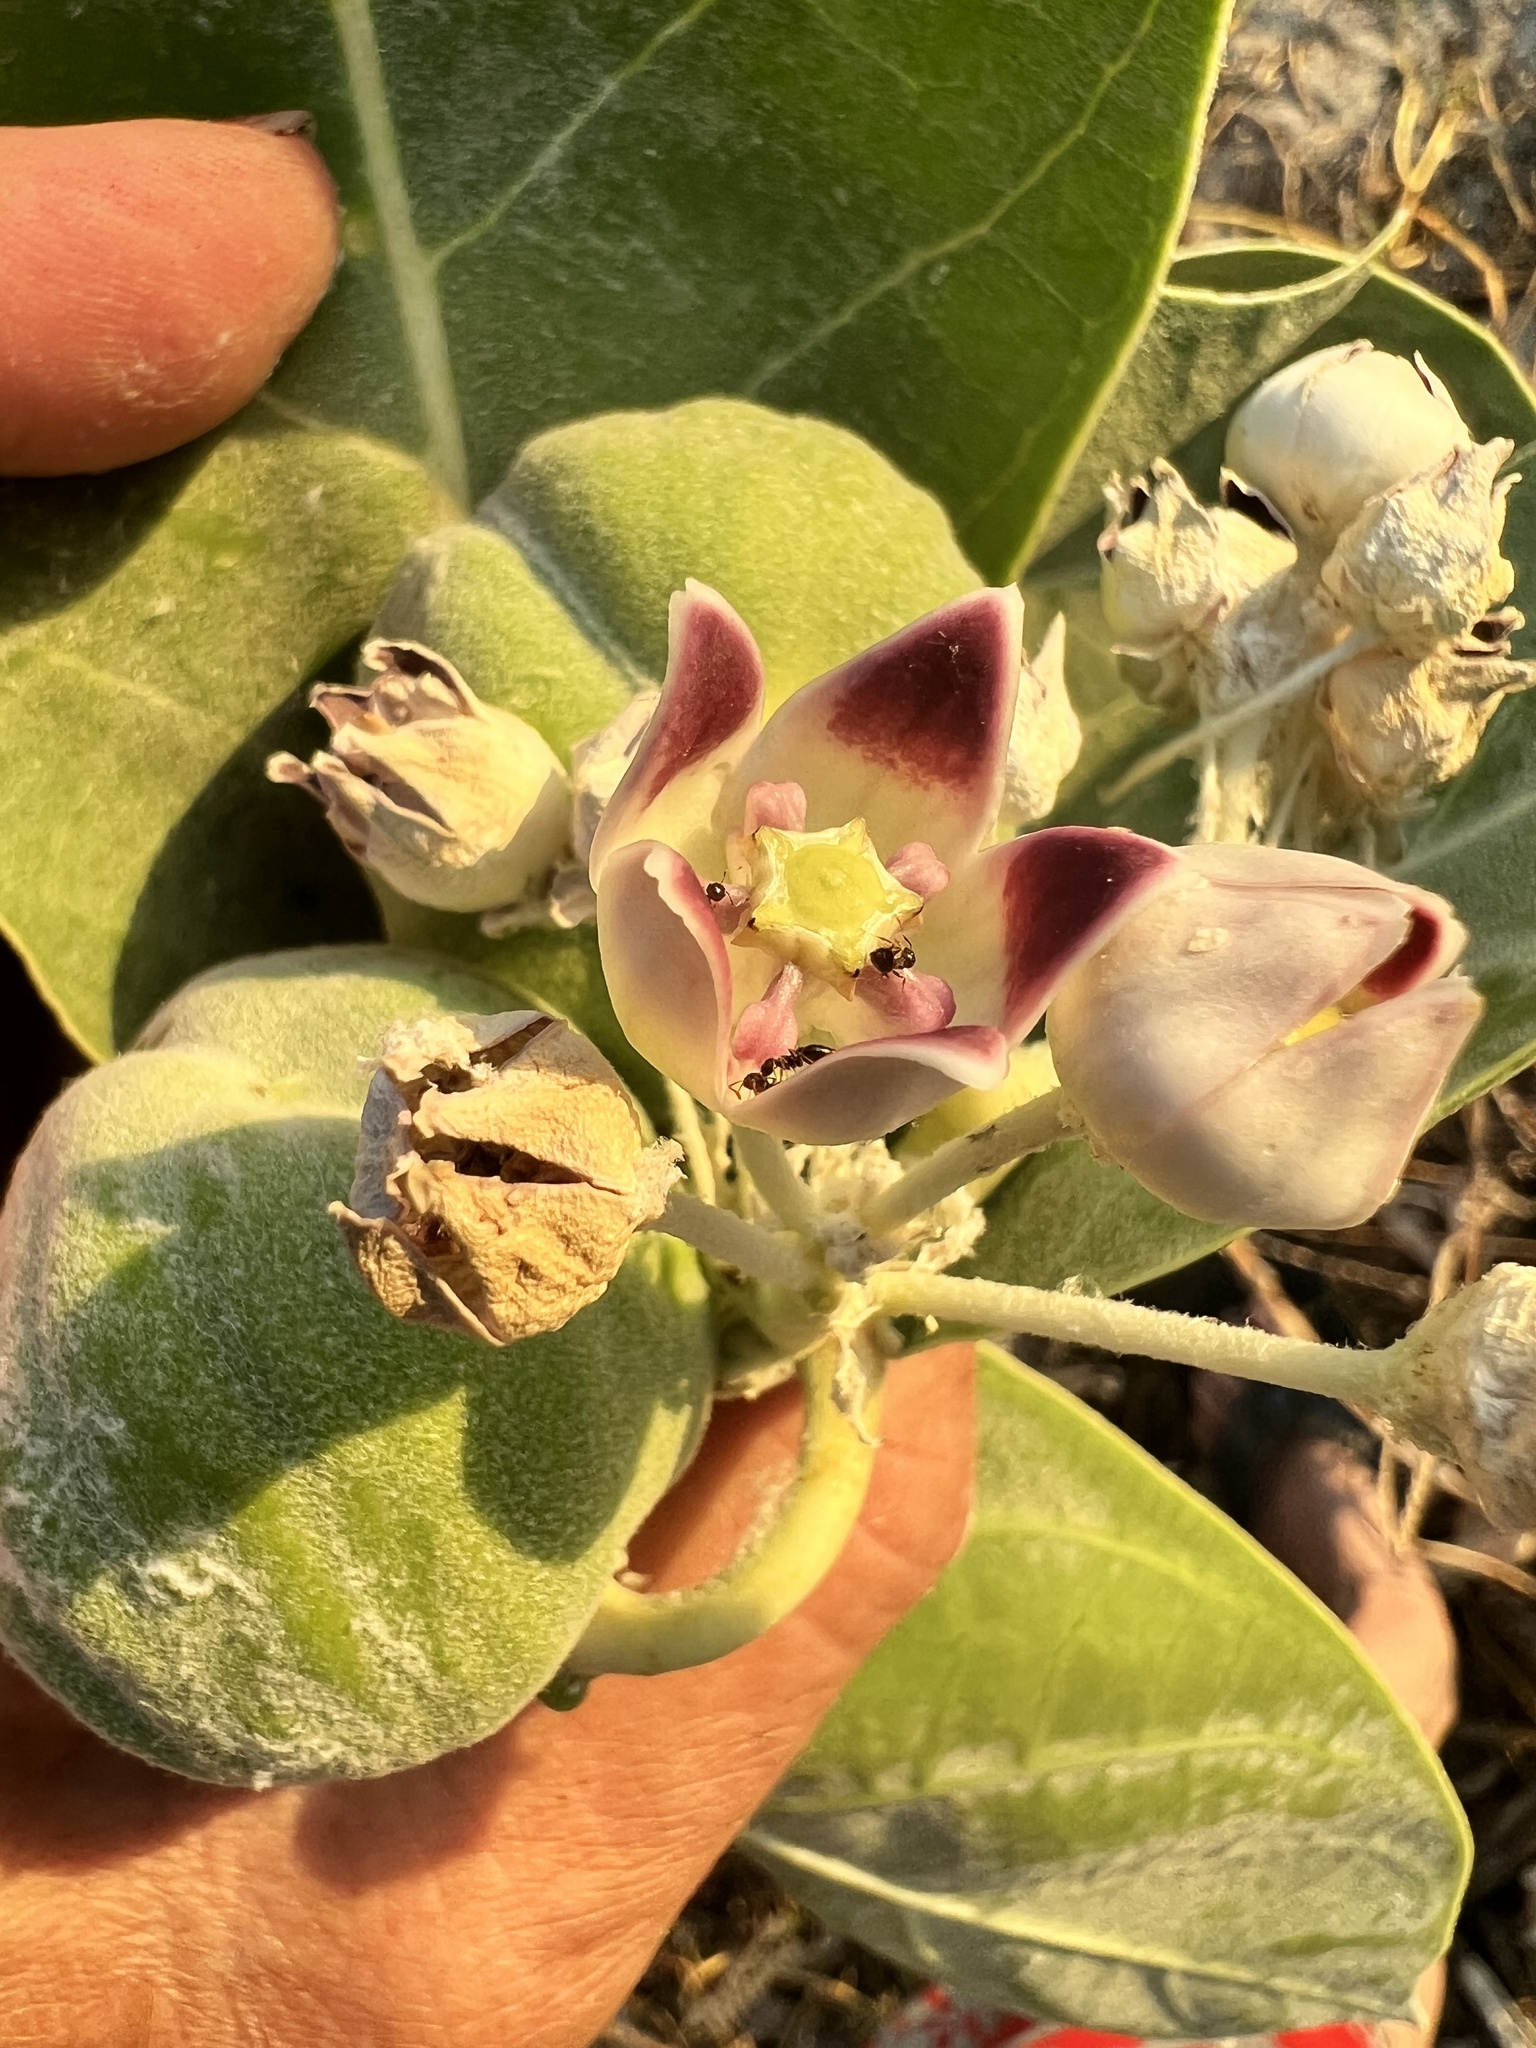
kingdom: Plantae
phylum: Tracheophyta
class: Magnoliopsida
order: Gentianales
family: Apocynaceae
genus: Calotropis
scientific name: Calotropis procera
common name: Roostertree
